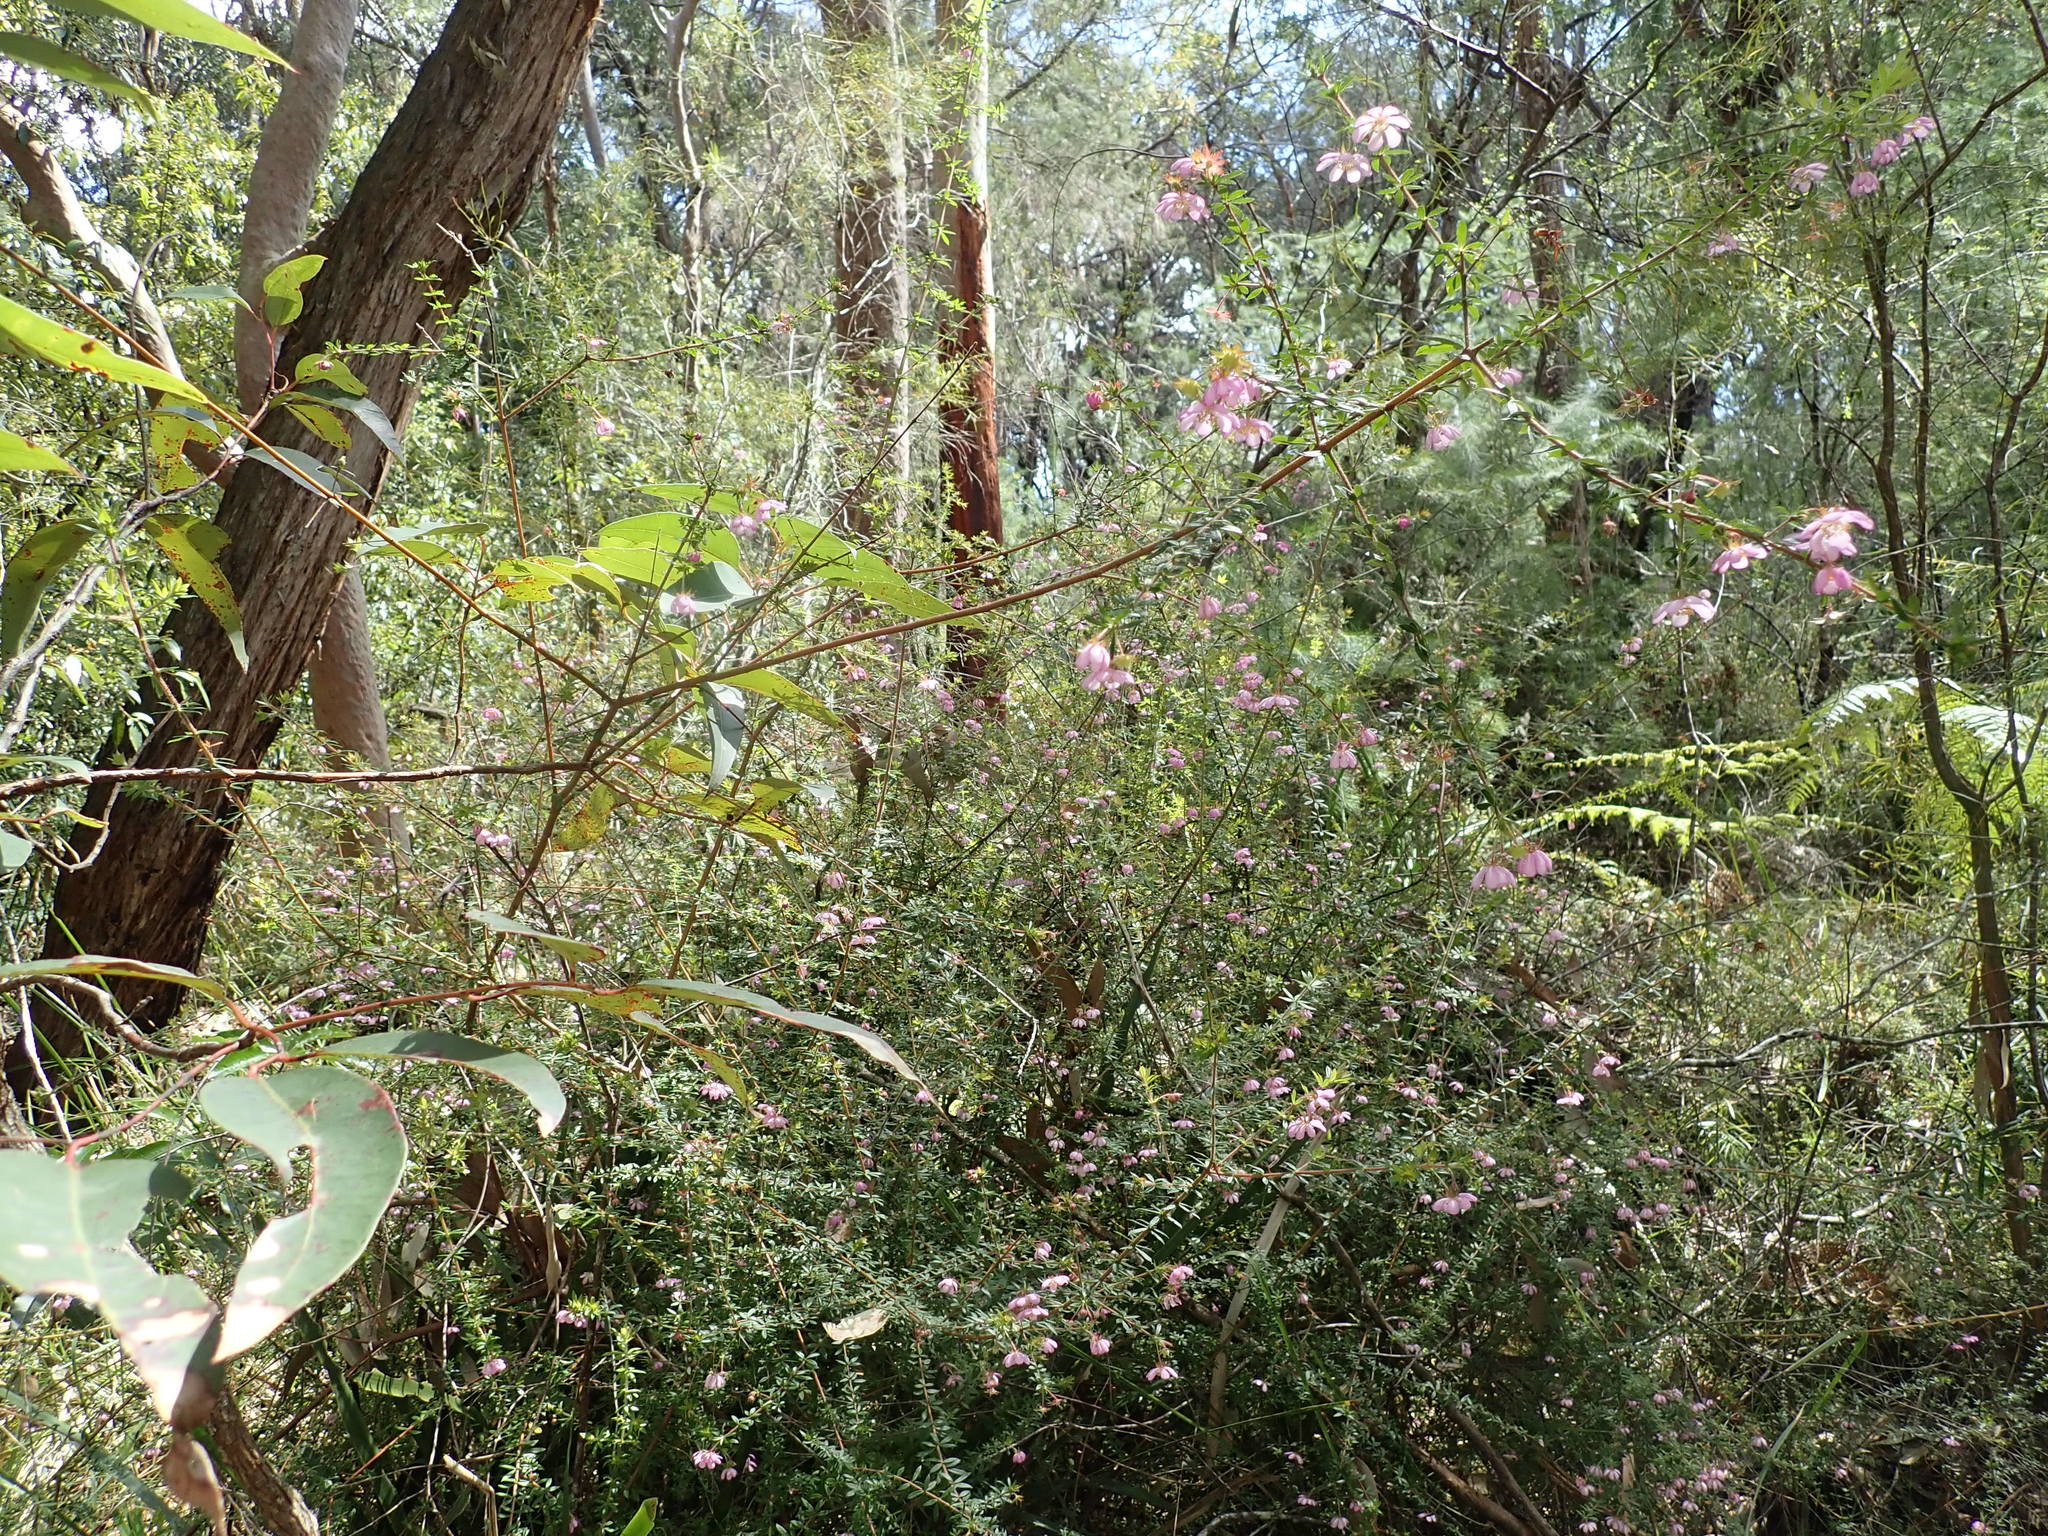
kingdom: Plantae
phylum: Tracheophyta
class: Magnoliopsida
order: Oxalidales
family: Cunoniaceae
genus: Bauera
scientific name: Bauera rubioides
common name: River-rose
